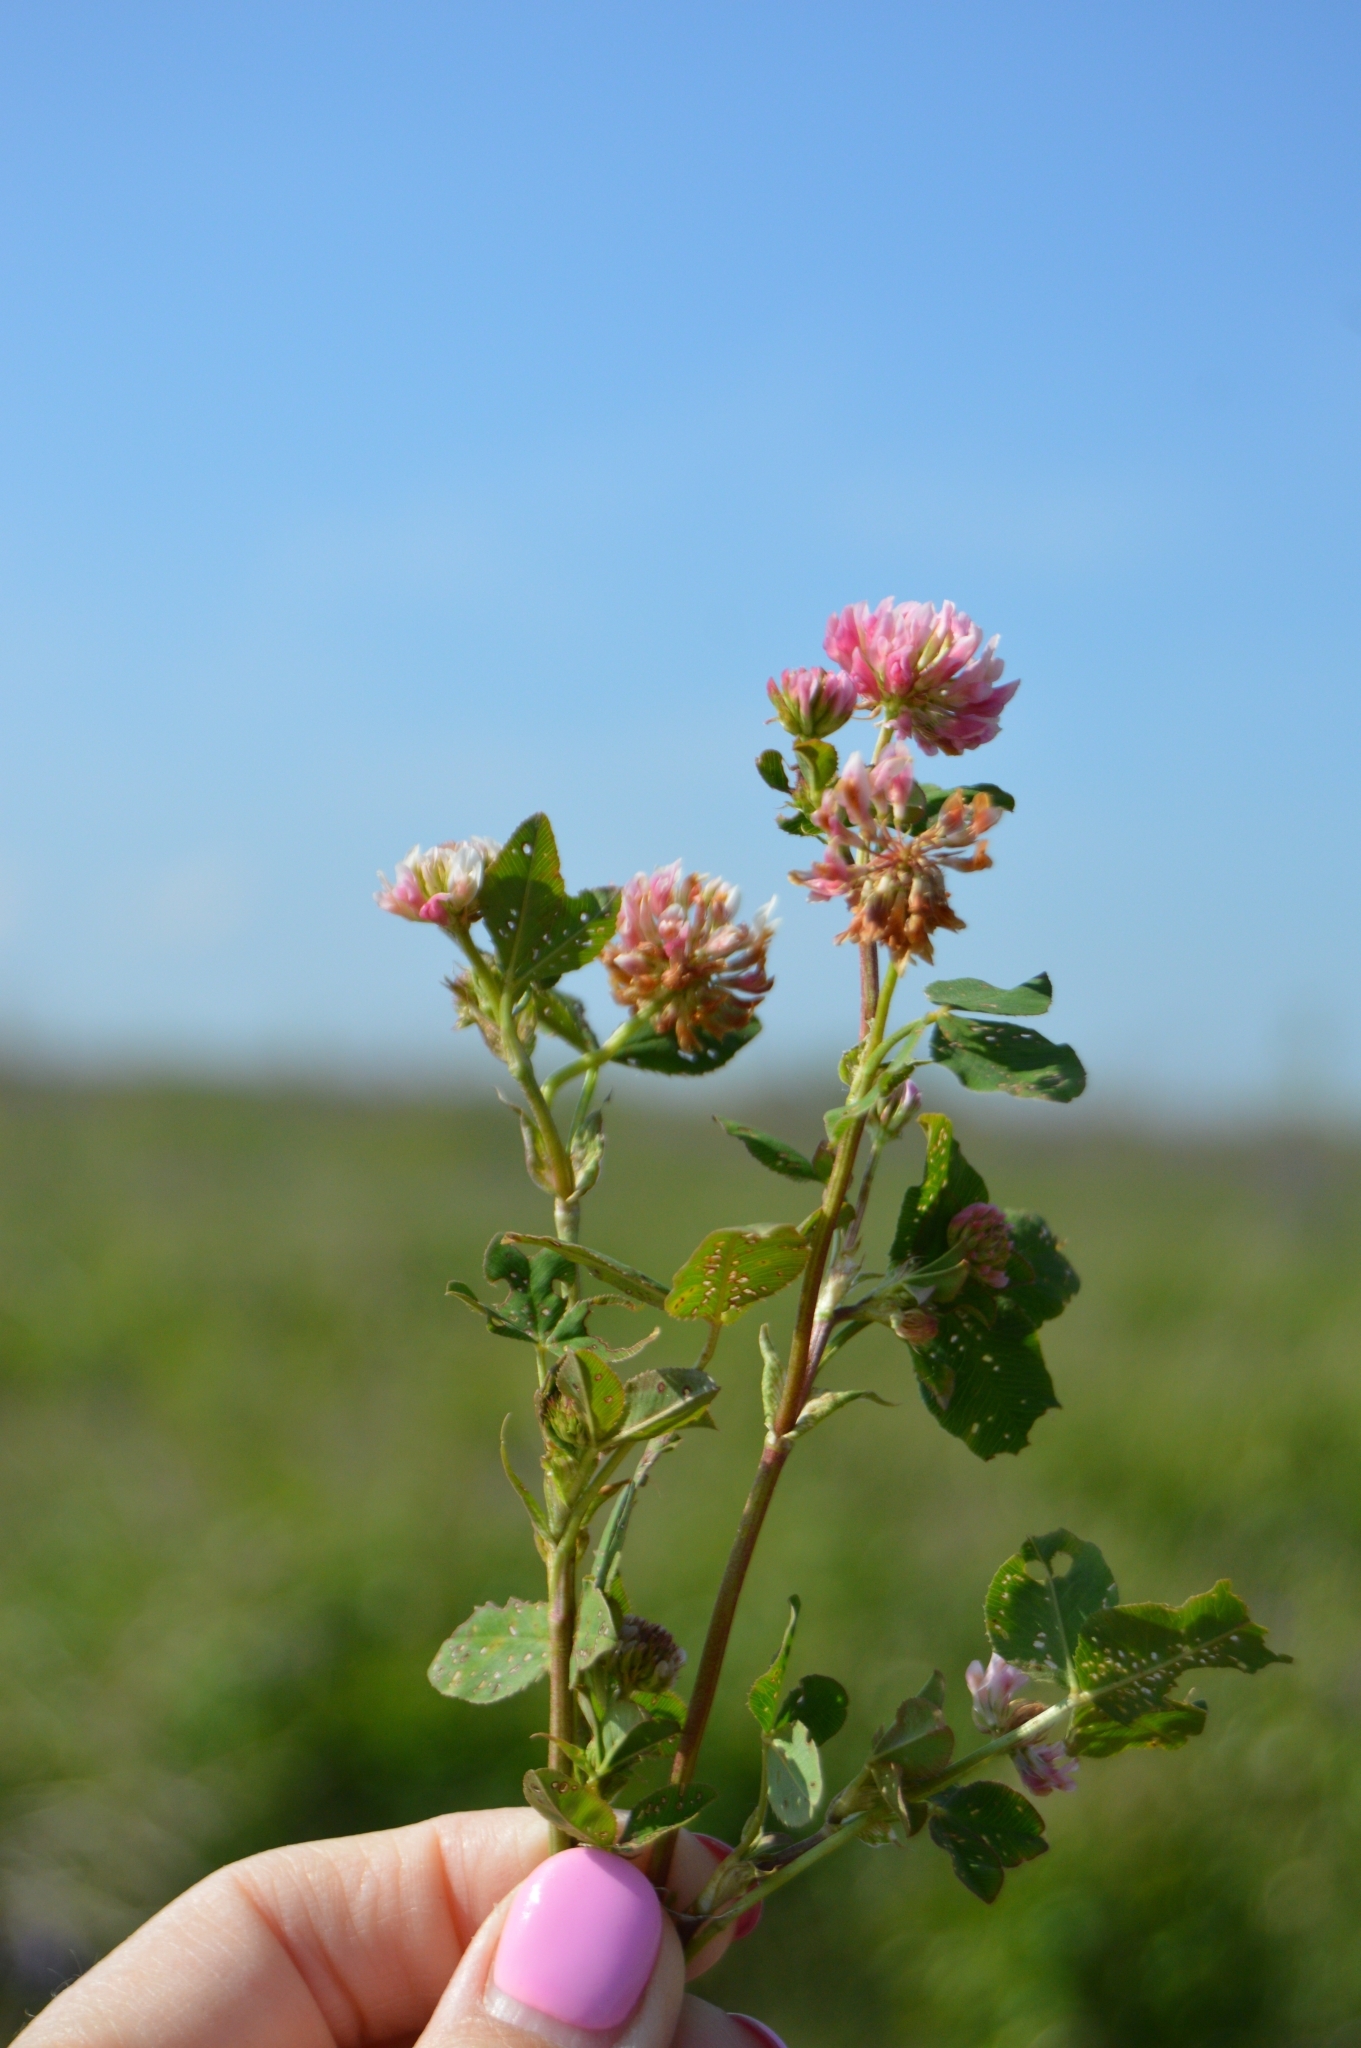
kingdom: Plantae
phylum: Tracheophyta
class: Magnoliopsida
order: Fabales
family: Fabaceae
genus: Trifolium
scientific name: Trifolium hybridum
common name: Alsike clover
